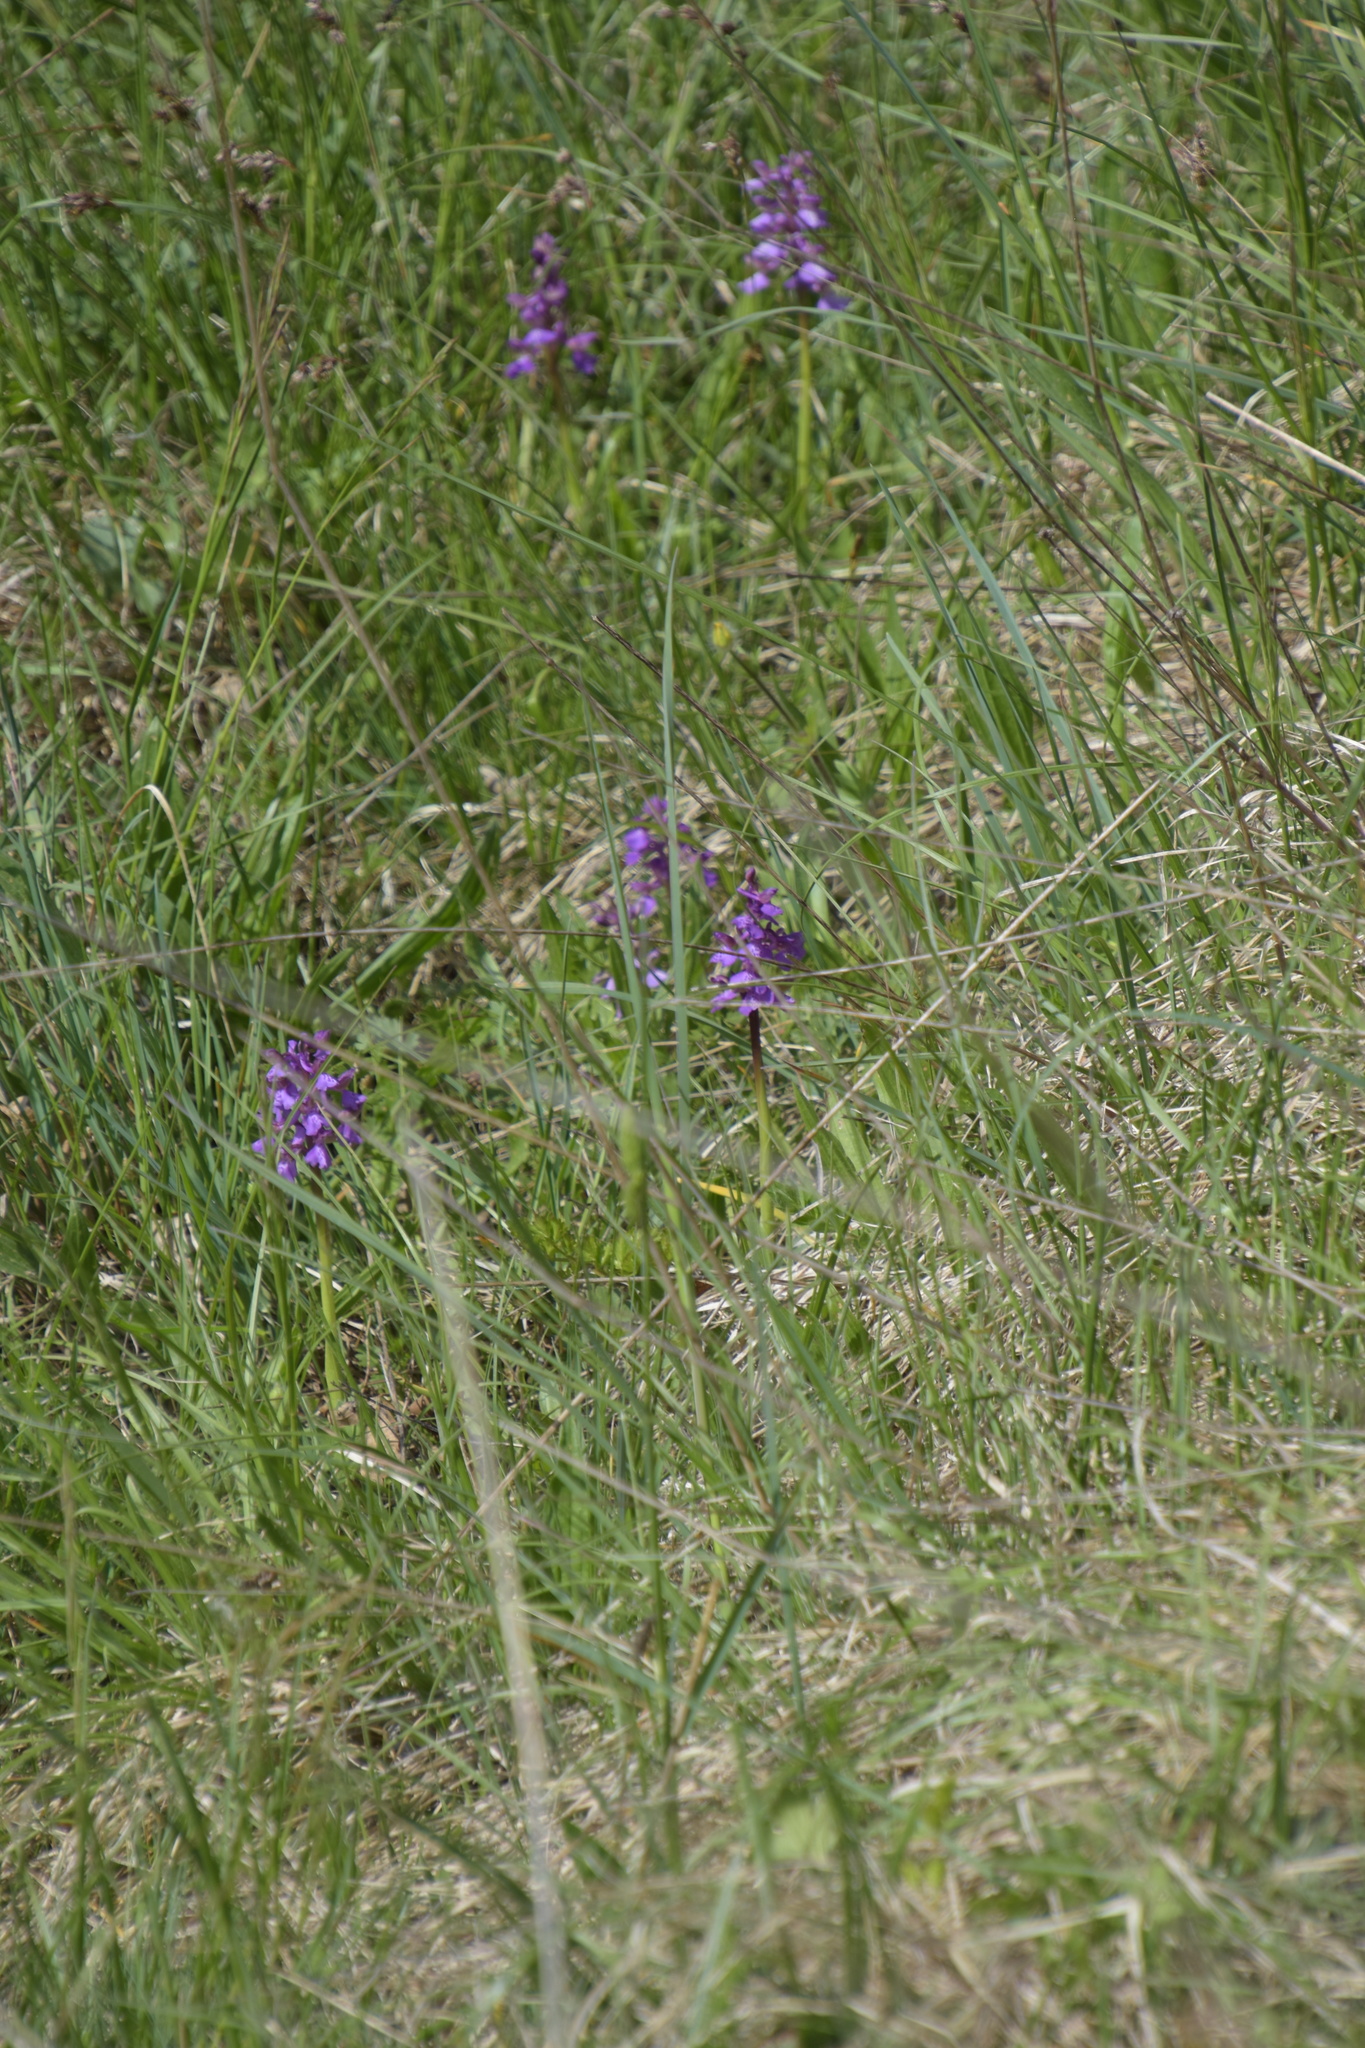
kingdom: Plantae
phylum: Tracheophyta
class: Liliopsida
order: Asparagales
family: Orchidaceae
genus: Anacamptis
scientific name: Anacamptis morio
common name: Green-winged orchid
